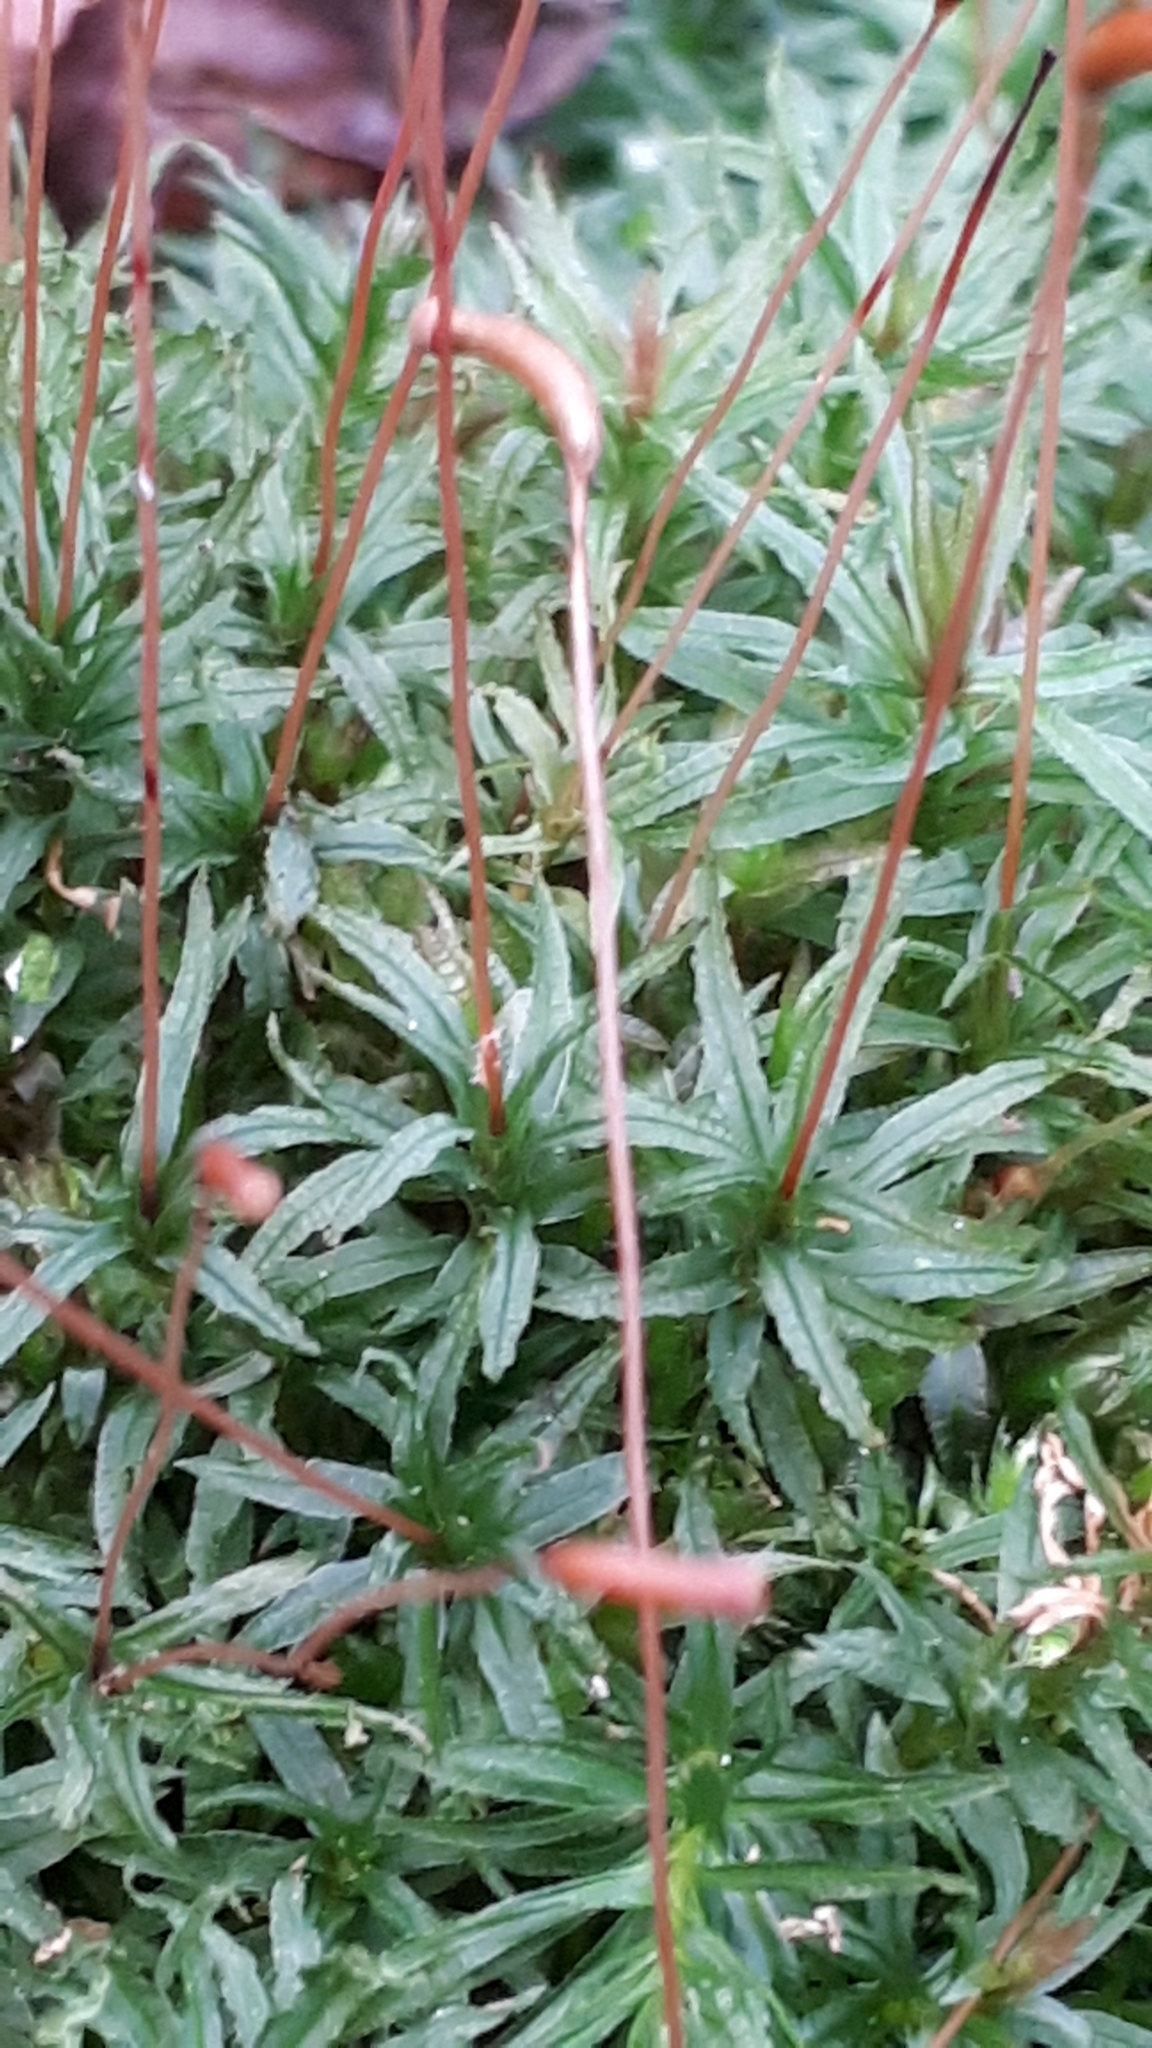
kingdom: Plantae
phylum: Bryophyta
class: Polytrichopsida
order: Polytrichales
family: Polytrichaceae
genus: Atrichum
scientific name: Atrichum undulatum
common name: Common smoothcap
